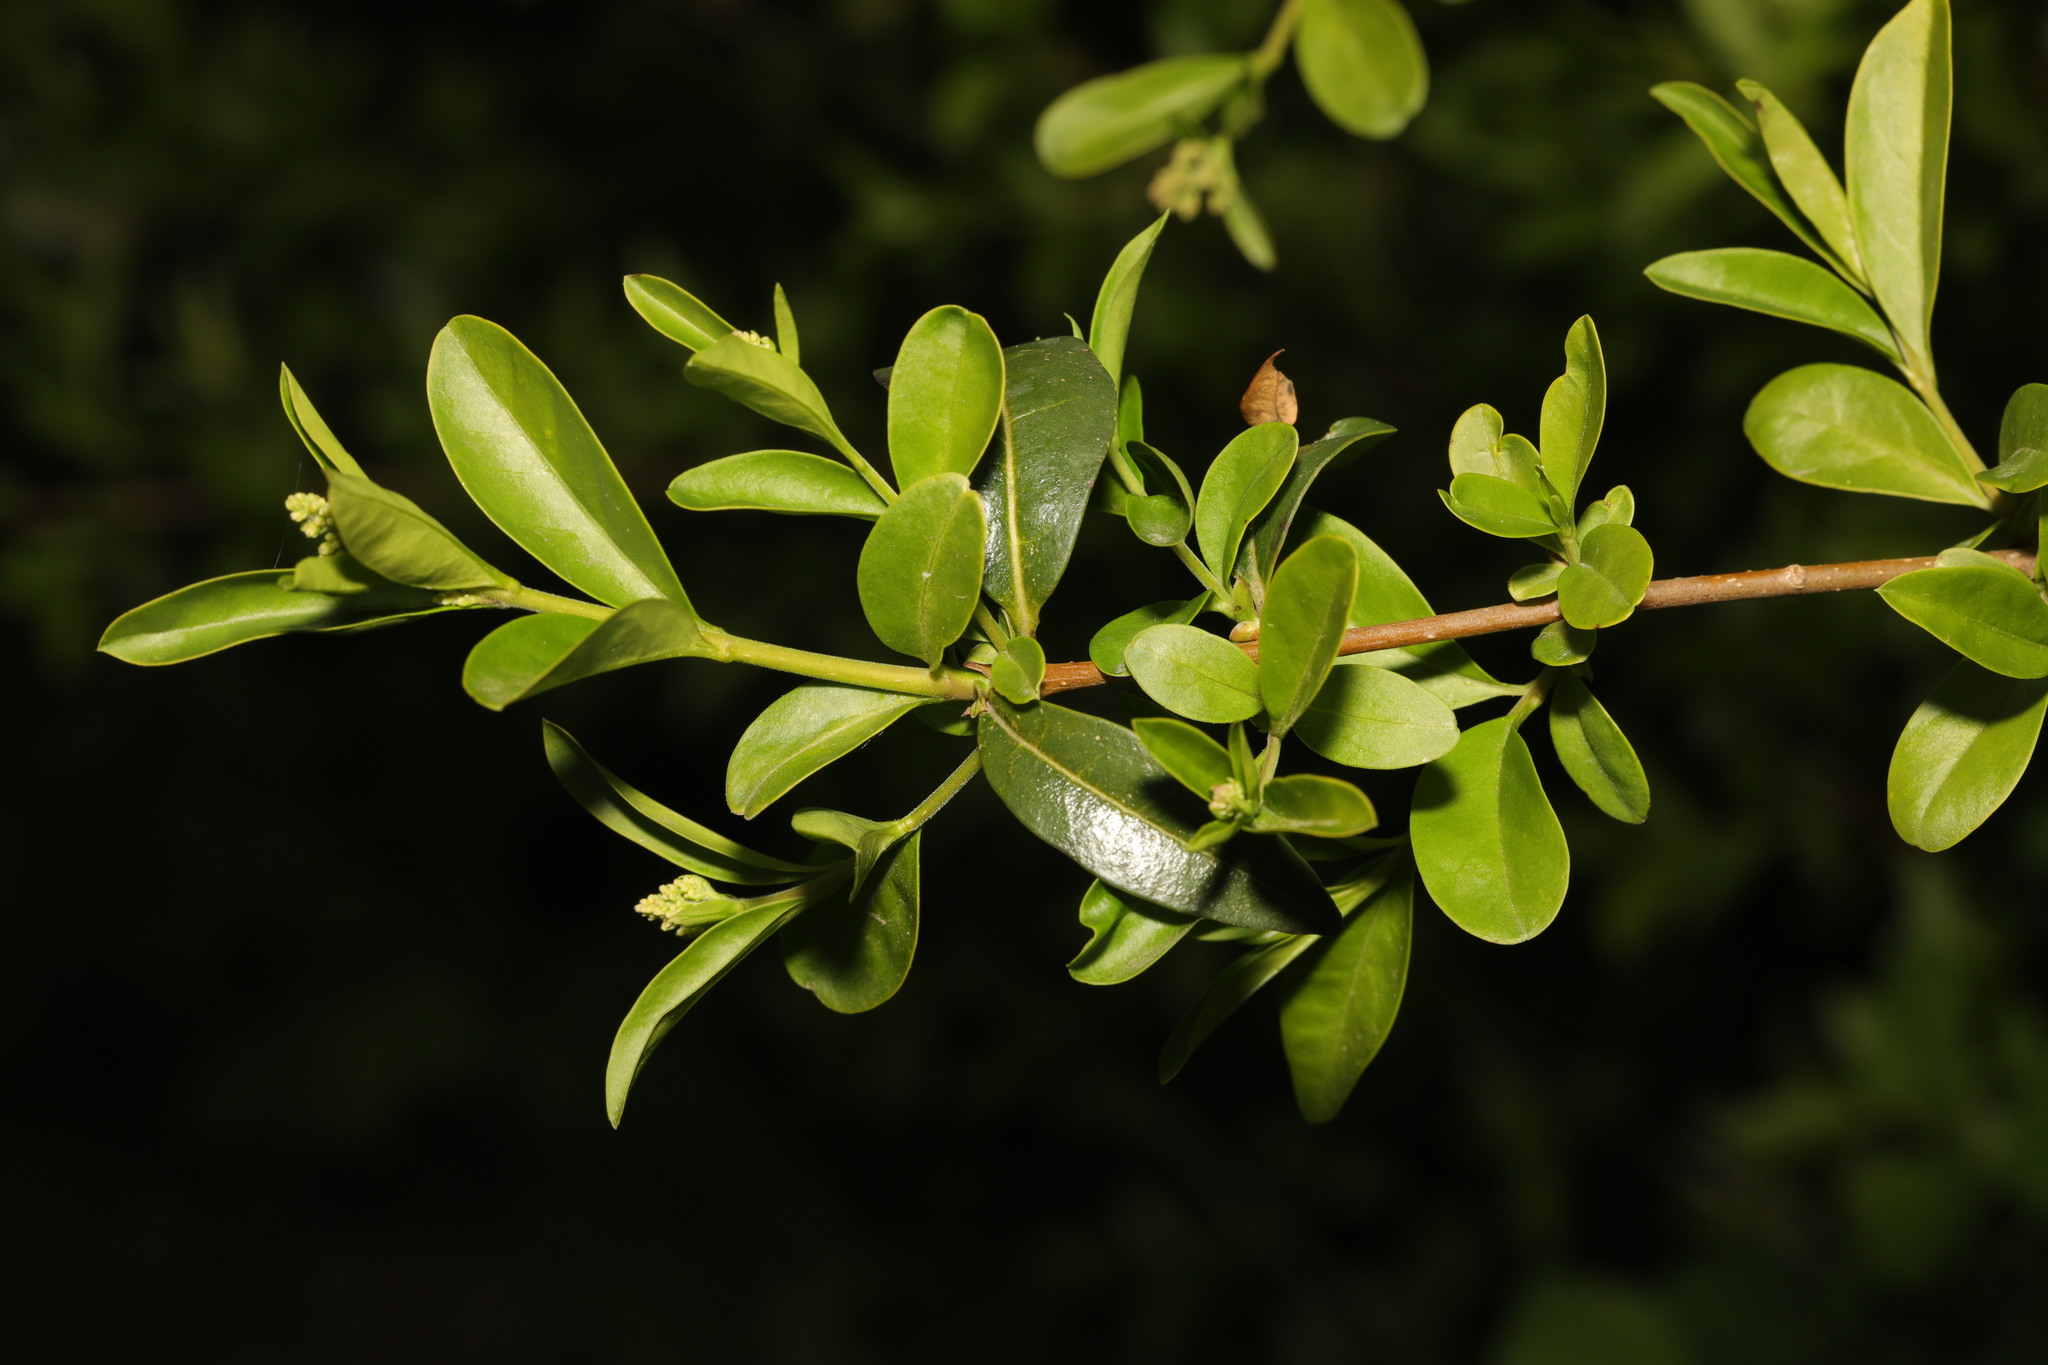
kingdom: Plantae
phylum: Tracheophyta
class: Magnoliopsida
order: Lamiales
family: Oleaceae
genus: Ligustrum
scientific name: Ligustrum vulgare
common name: Wild privet
